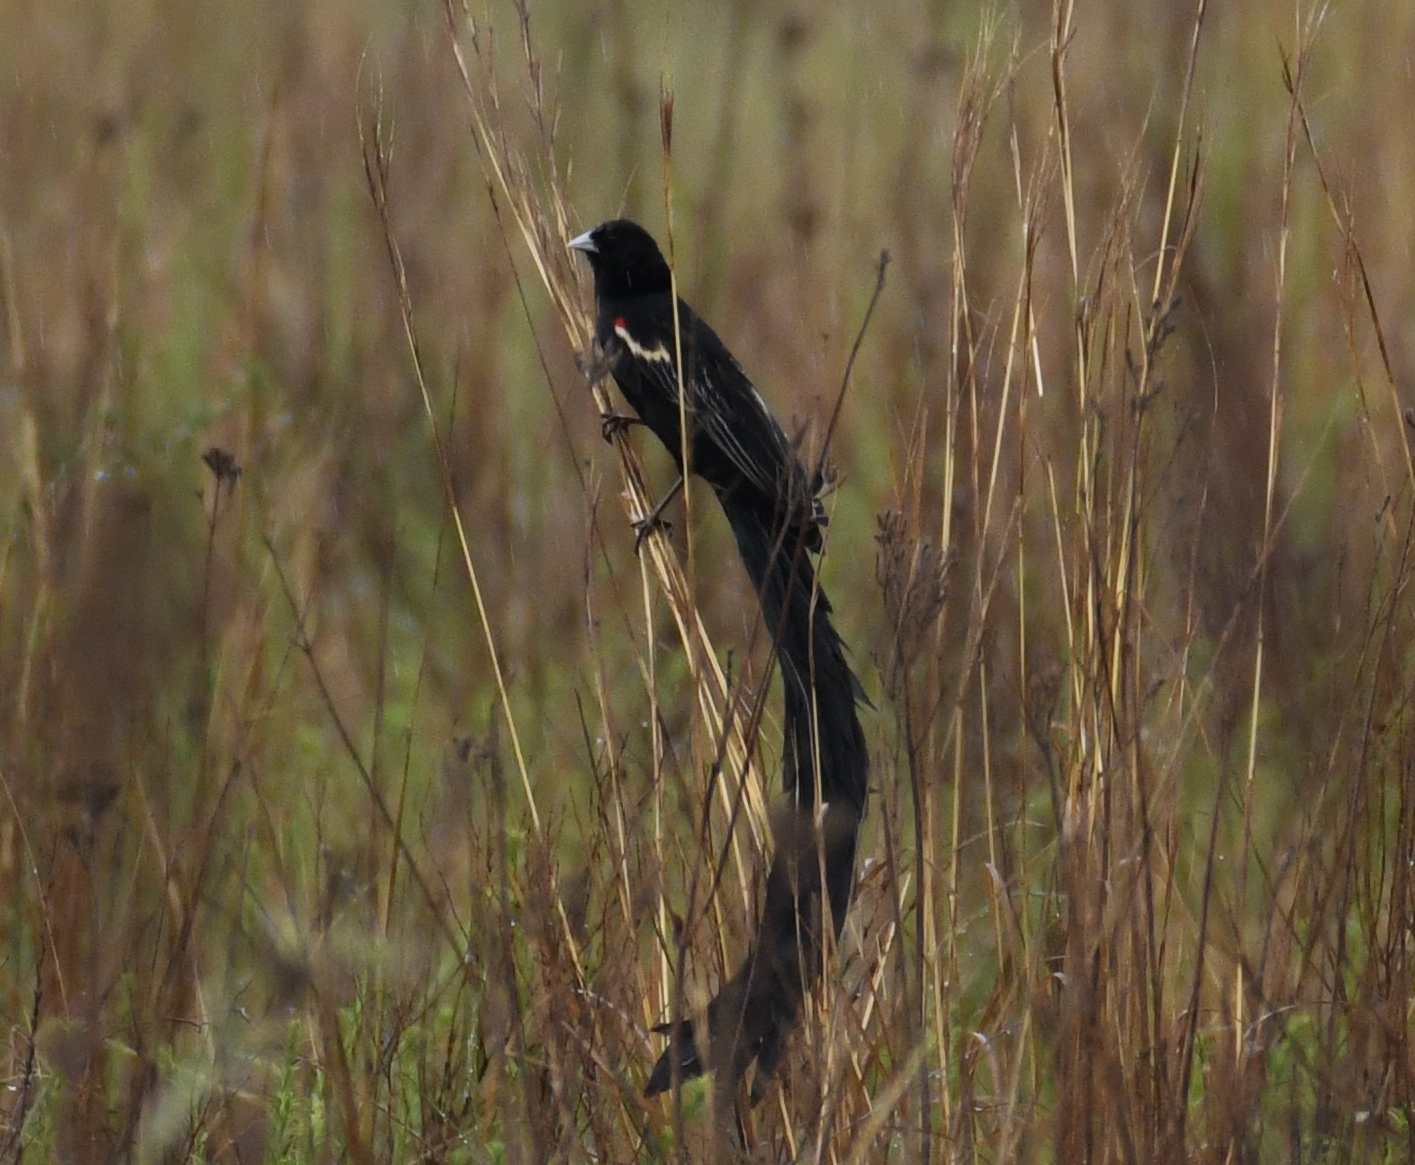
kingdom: Animalia
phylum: Chordata
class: Aves
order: Passeriformes
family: Ploceidae
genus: Euplectes
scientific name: Euplectes progne
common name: Long-tailed widowbird
